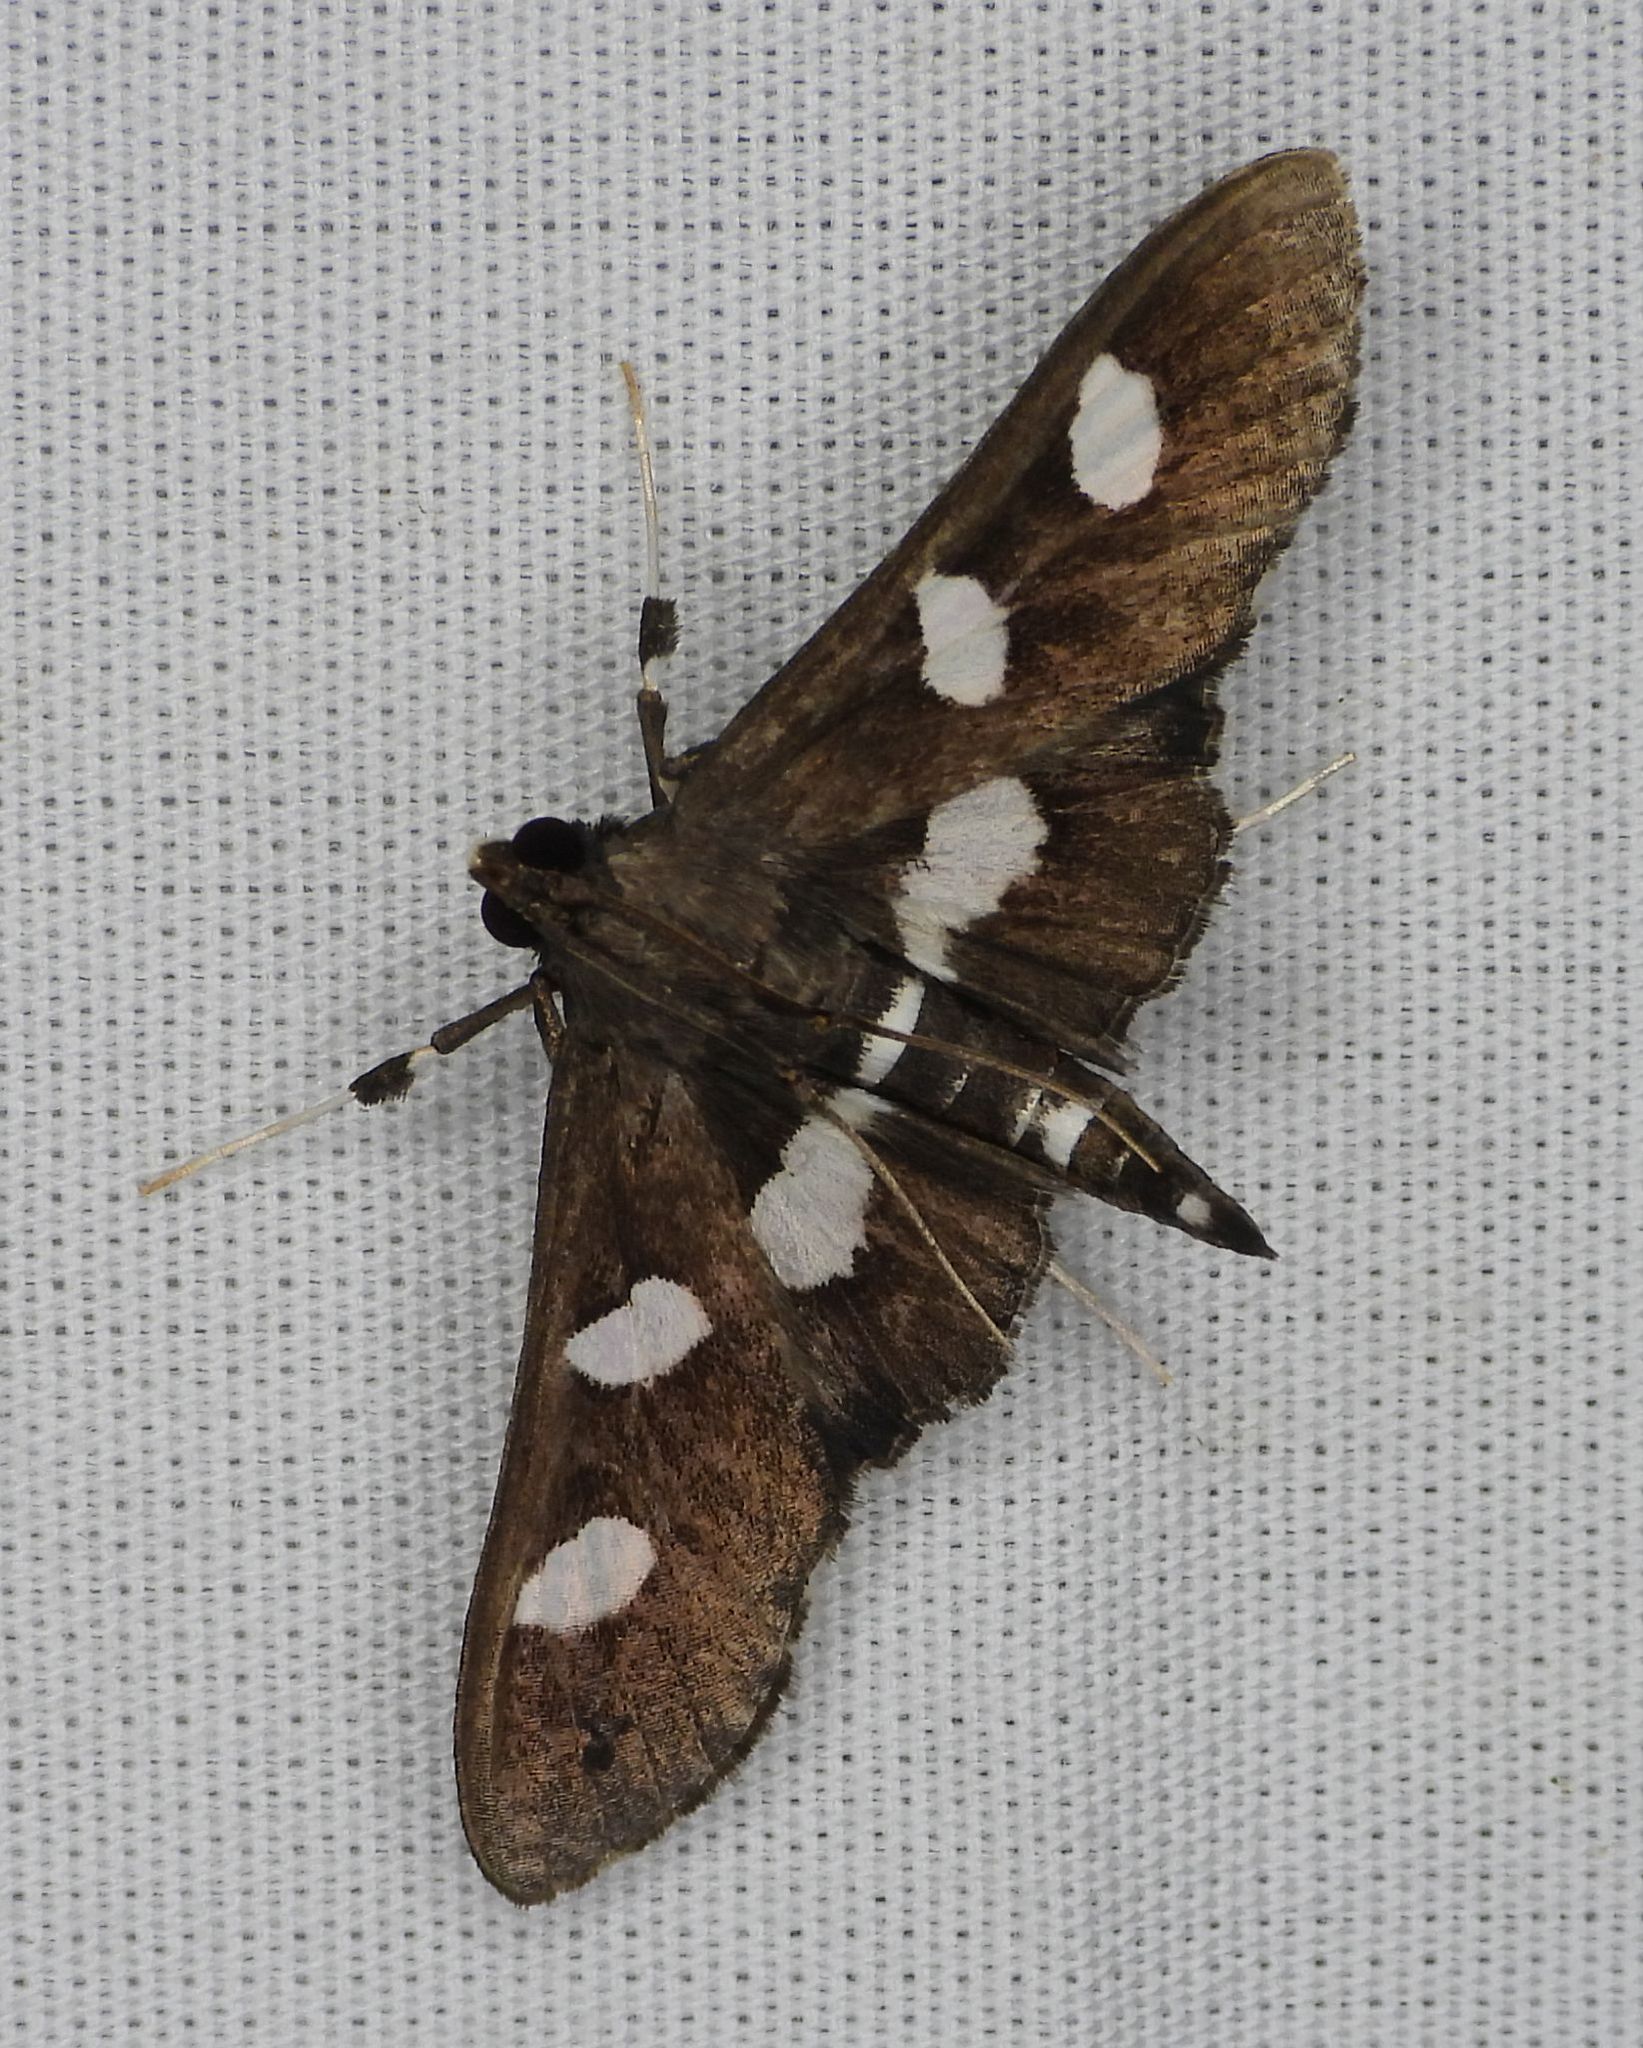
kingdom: Animalia
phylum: Arthropoda
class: Insecta
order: Lepidoptera
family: Crambidae
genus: Desmia
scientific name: Desmia
